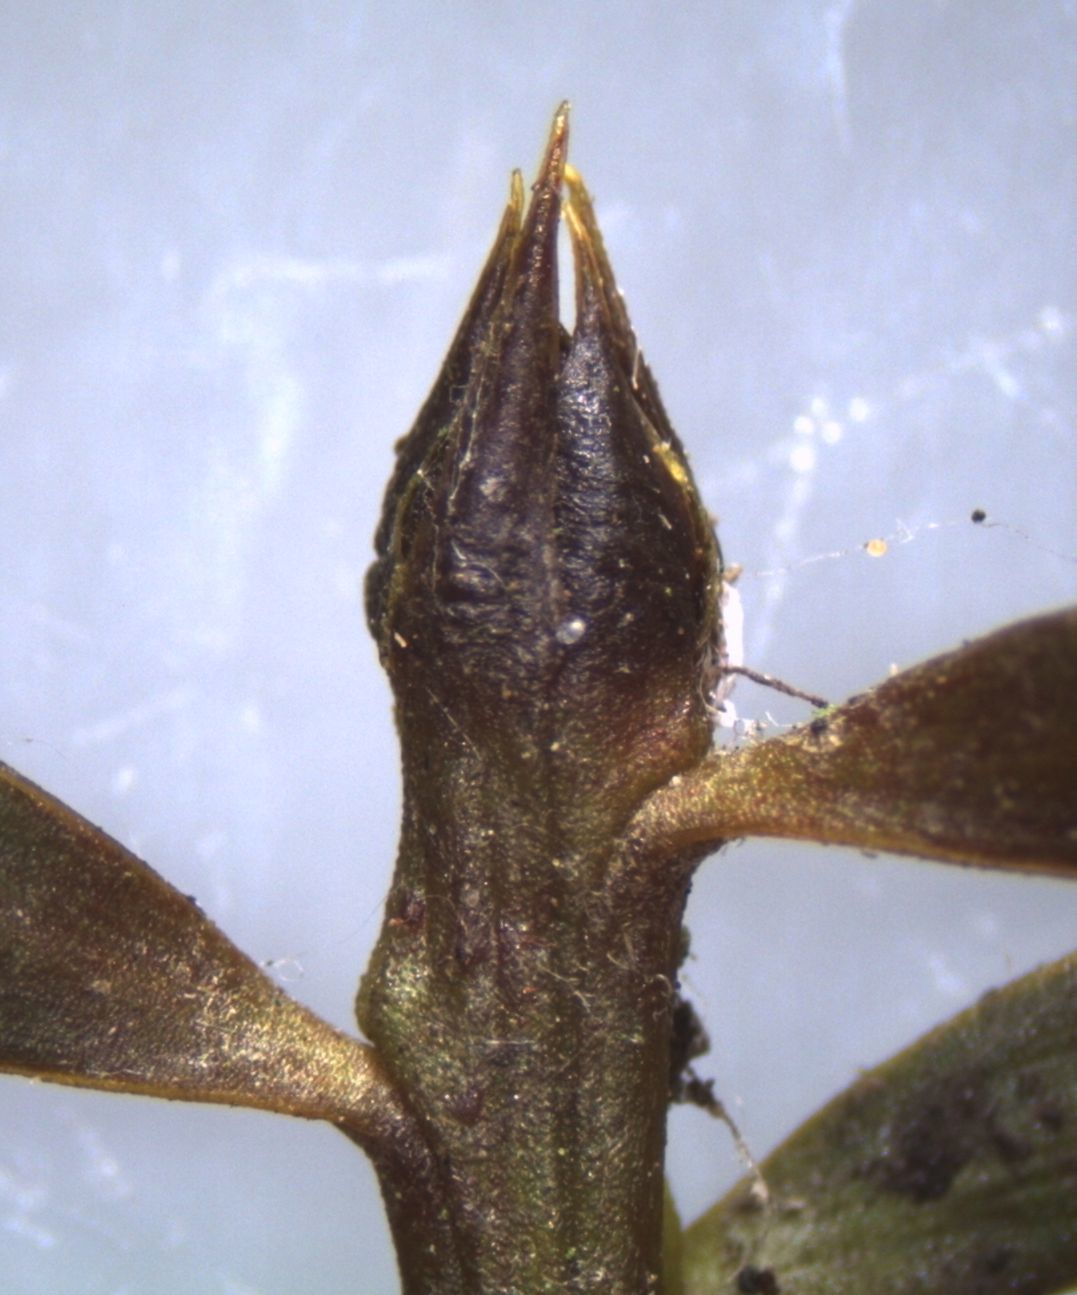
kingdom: Plantae
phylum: Tracheophyta
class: Pinopsida
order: Pinales
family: Podocarpaceae
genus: Podocarpus
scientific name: Podocarpus totara
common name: Totara
